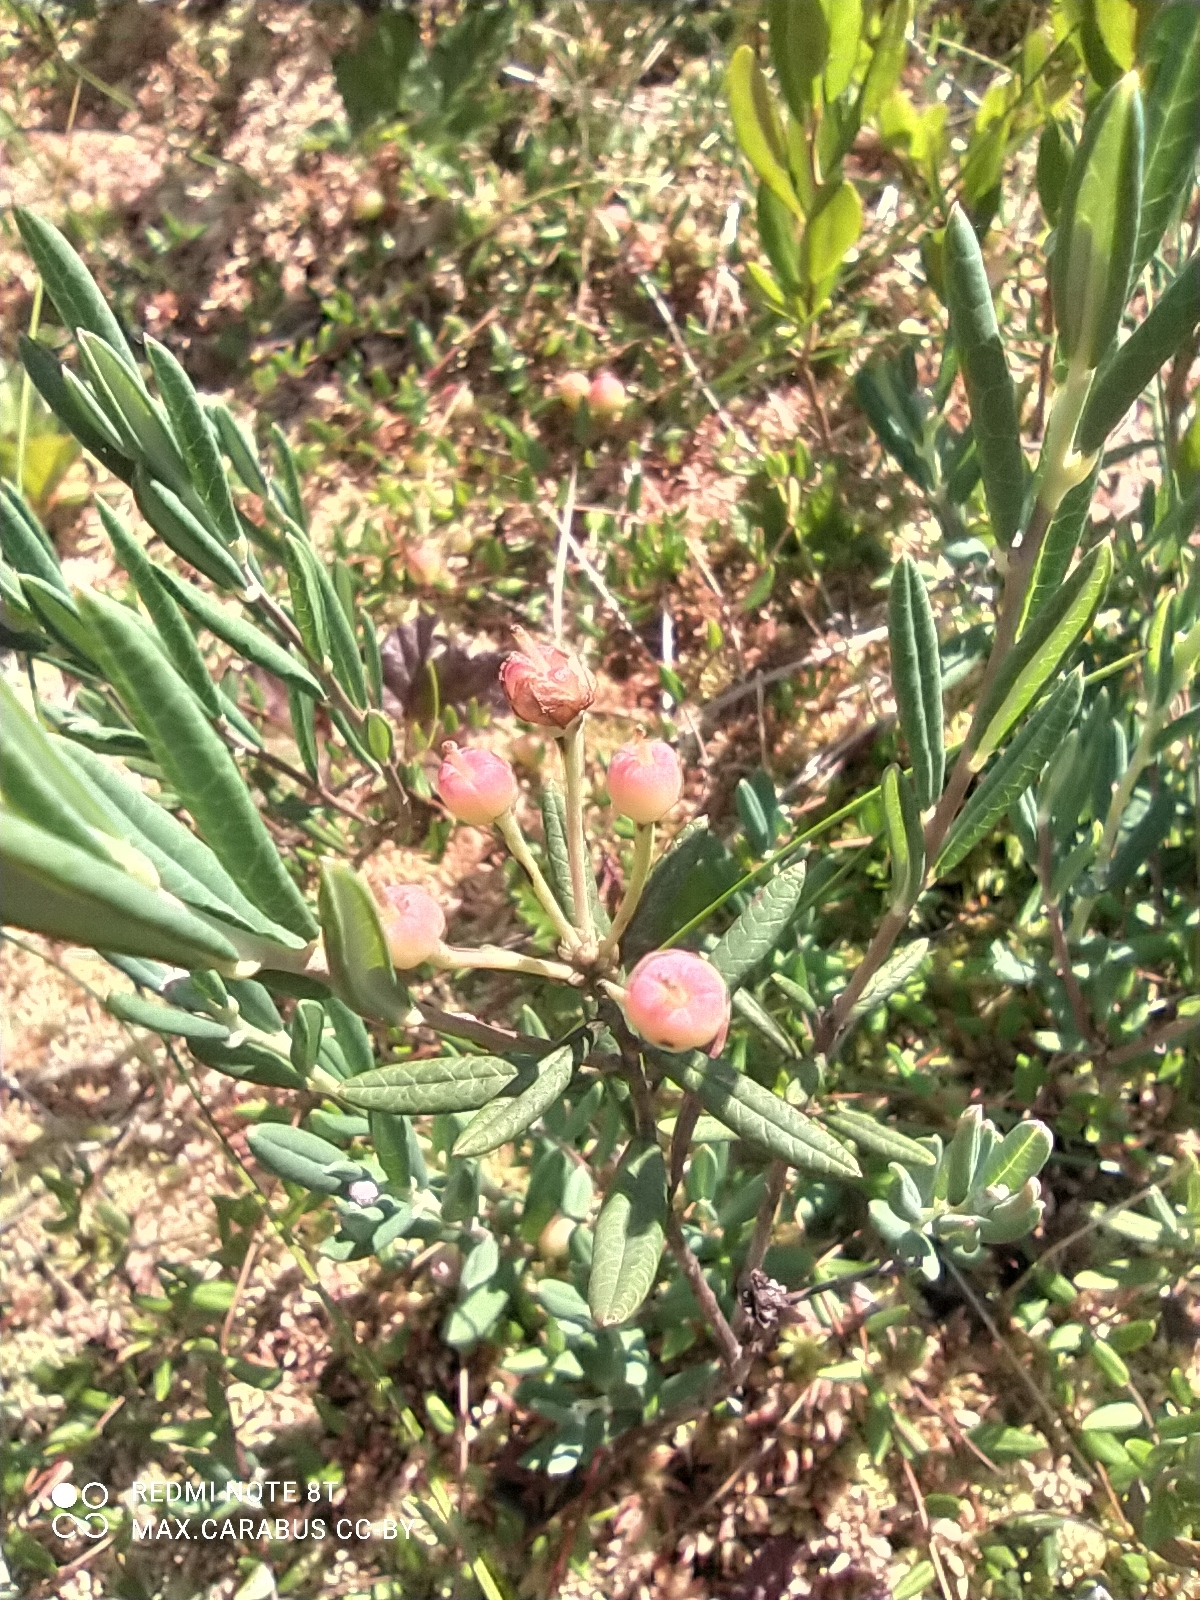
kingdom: Plantae
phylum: Tracheophyta
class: Magnoliopsida
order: Ericales
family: Ericaceae
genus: Andromeda
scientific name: Andromeda polifolia
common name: Bog-rosemary
